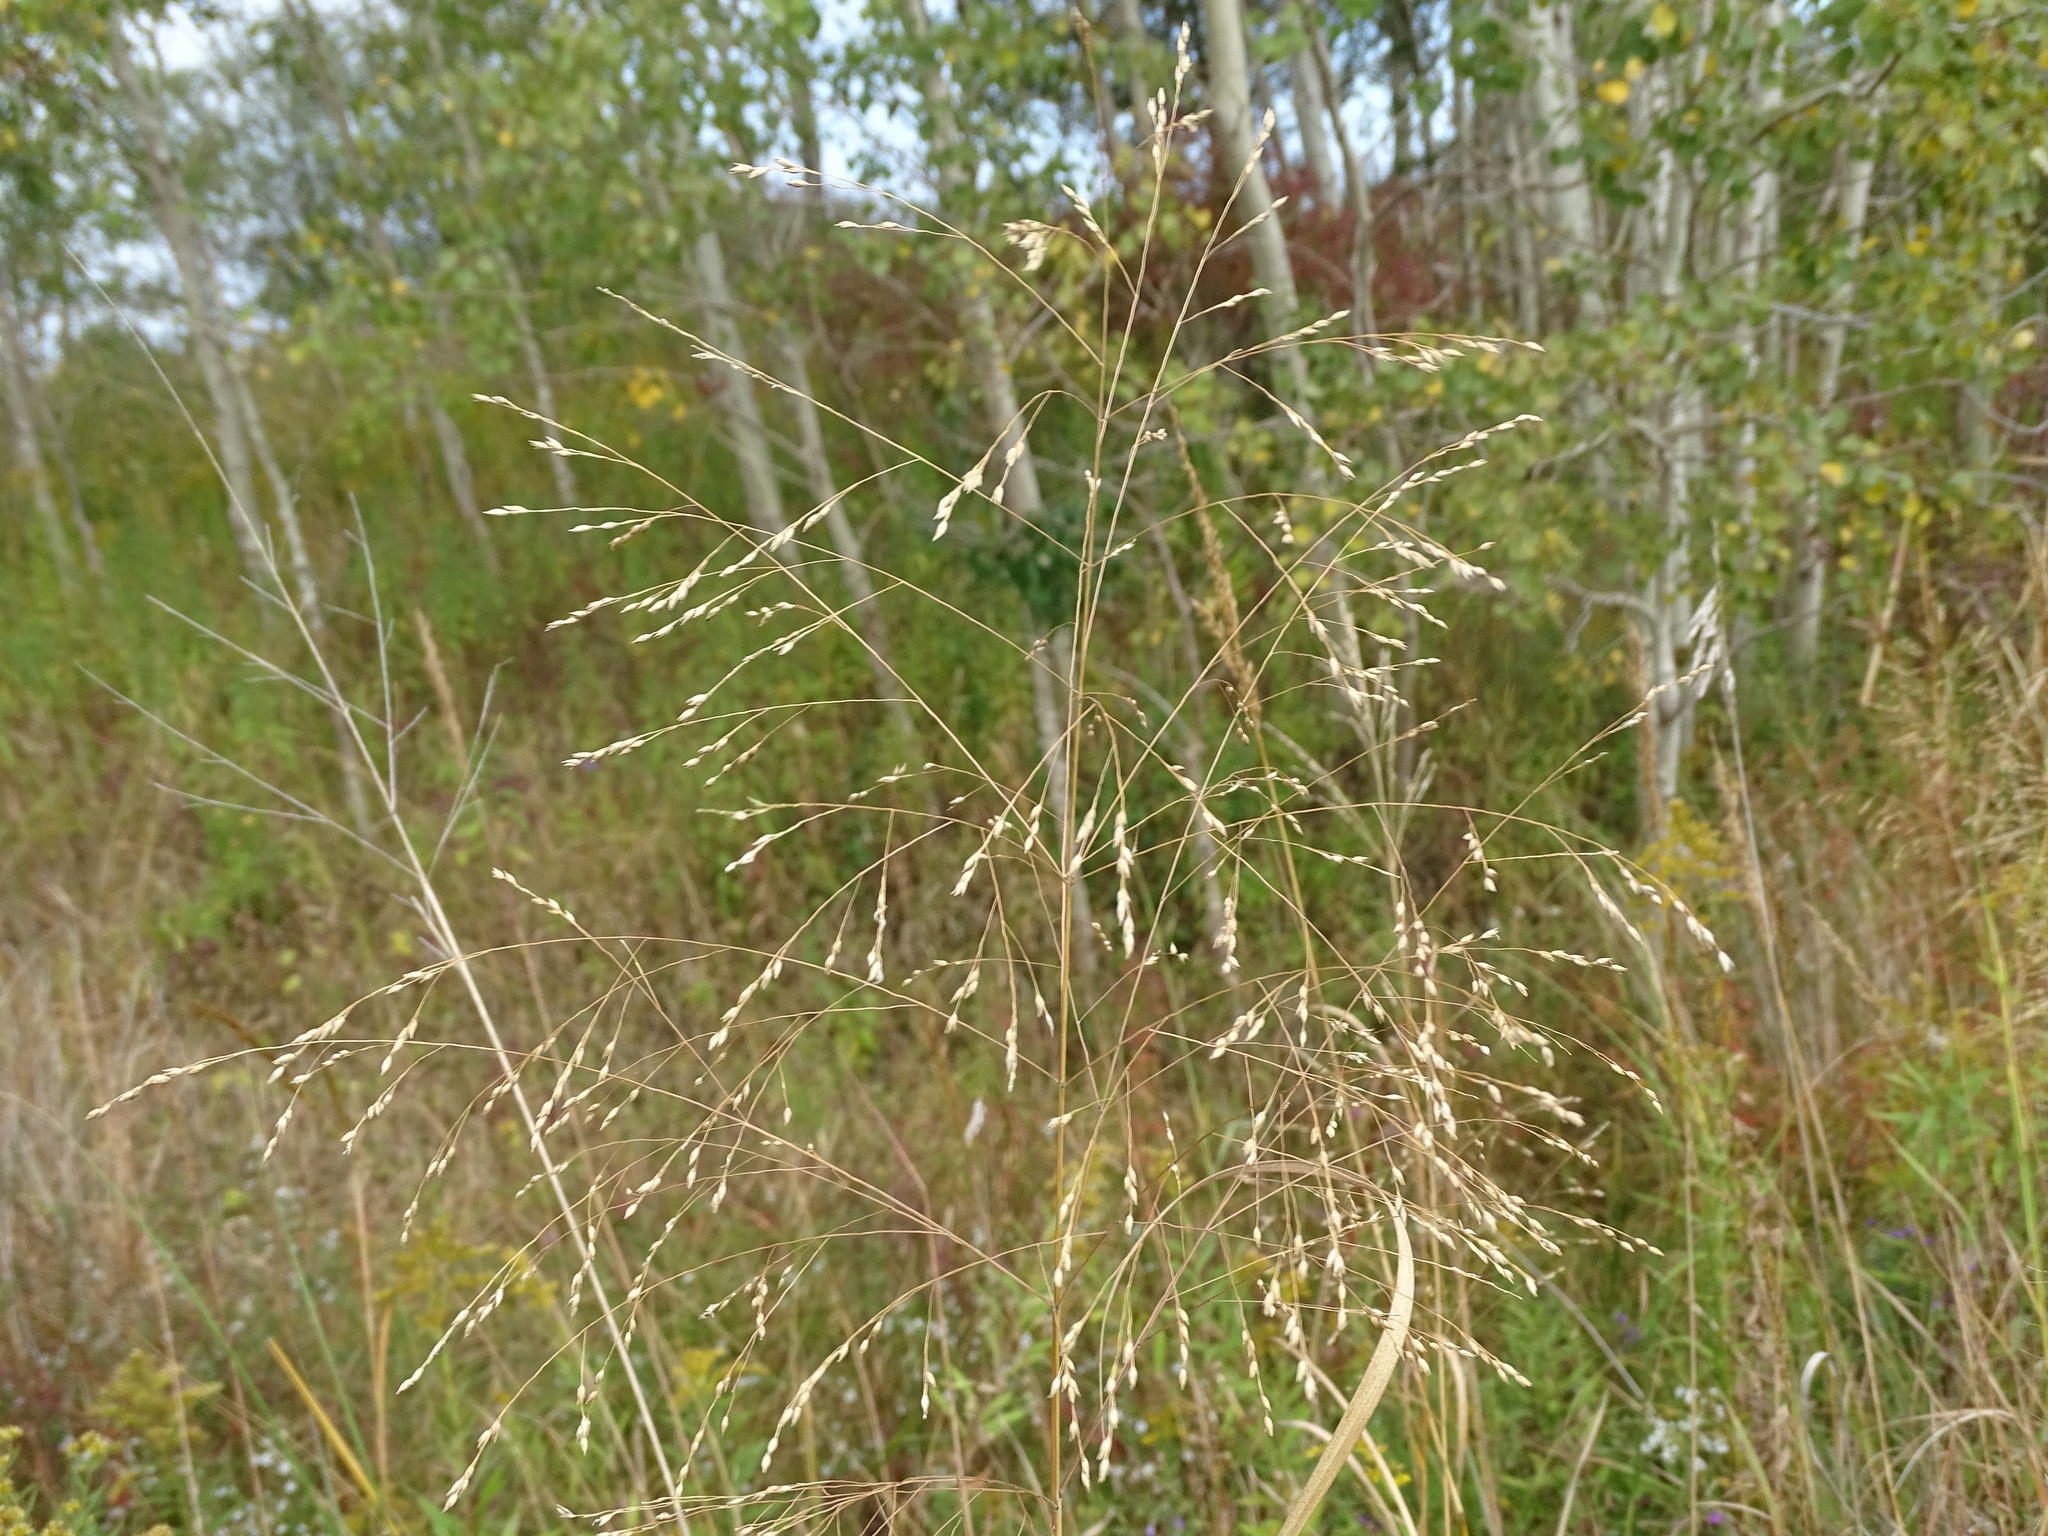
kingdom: Plantae
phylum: Tracheophyta
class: Liliopsida
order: Poales
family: Poaceae
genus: Panicum
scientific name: Panicum virgatum
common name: Switchgrass
